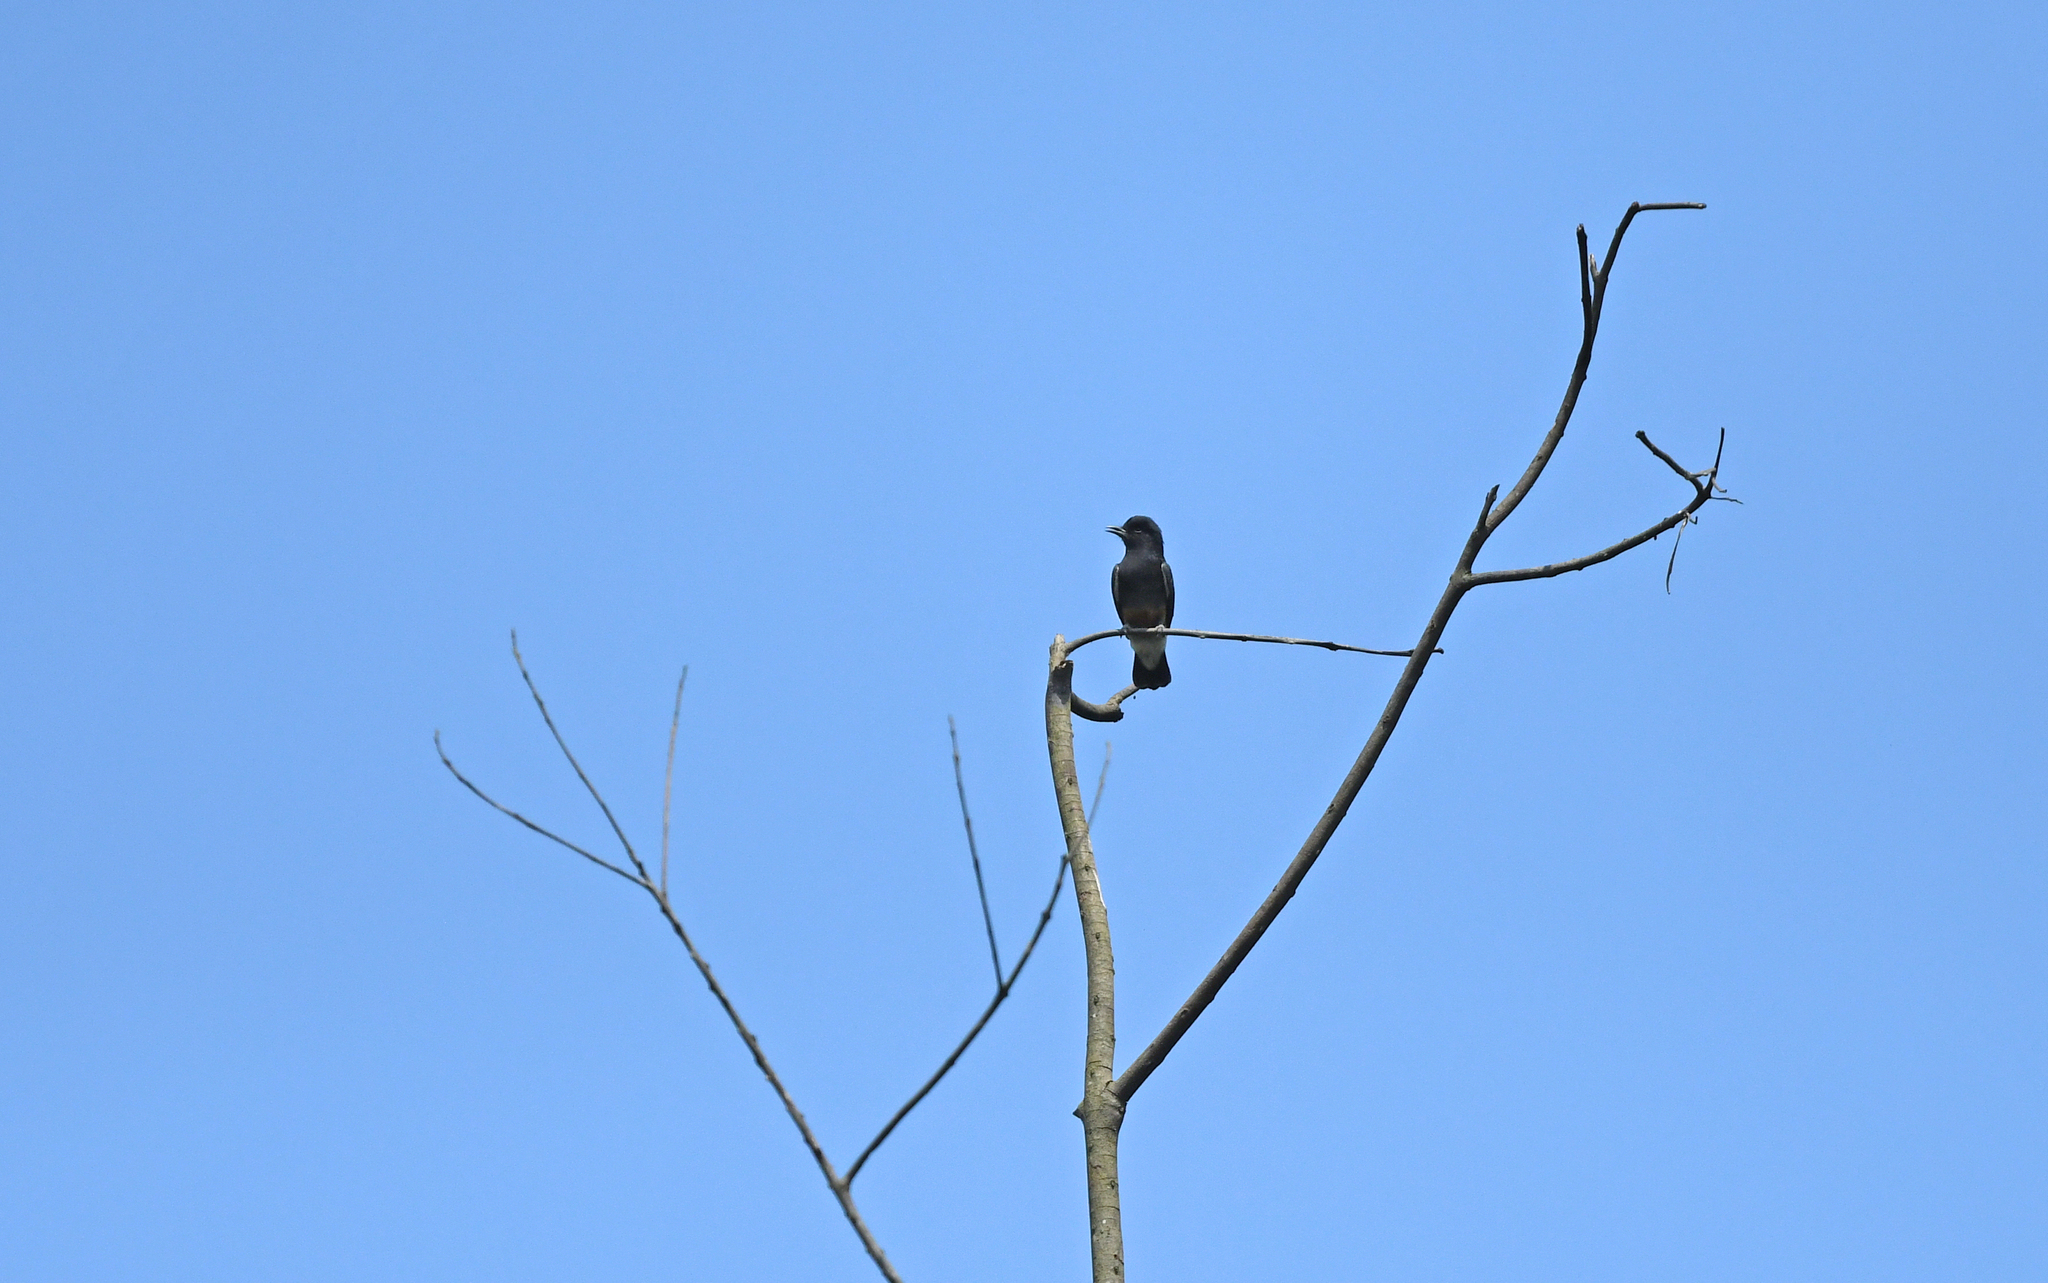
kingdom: Animalia
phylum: Chordata
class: Aves
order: Piciformes
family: Bucconidae
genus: Chelidoptera
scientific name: Chelidoptera tenebrosa
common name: Swallow-winged puffbird
